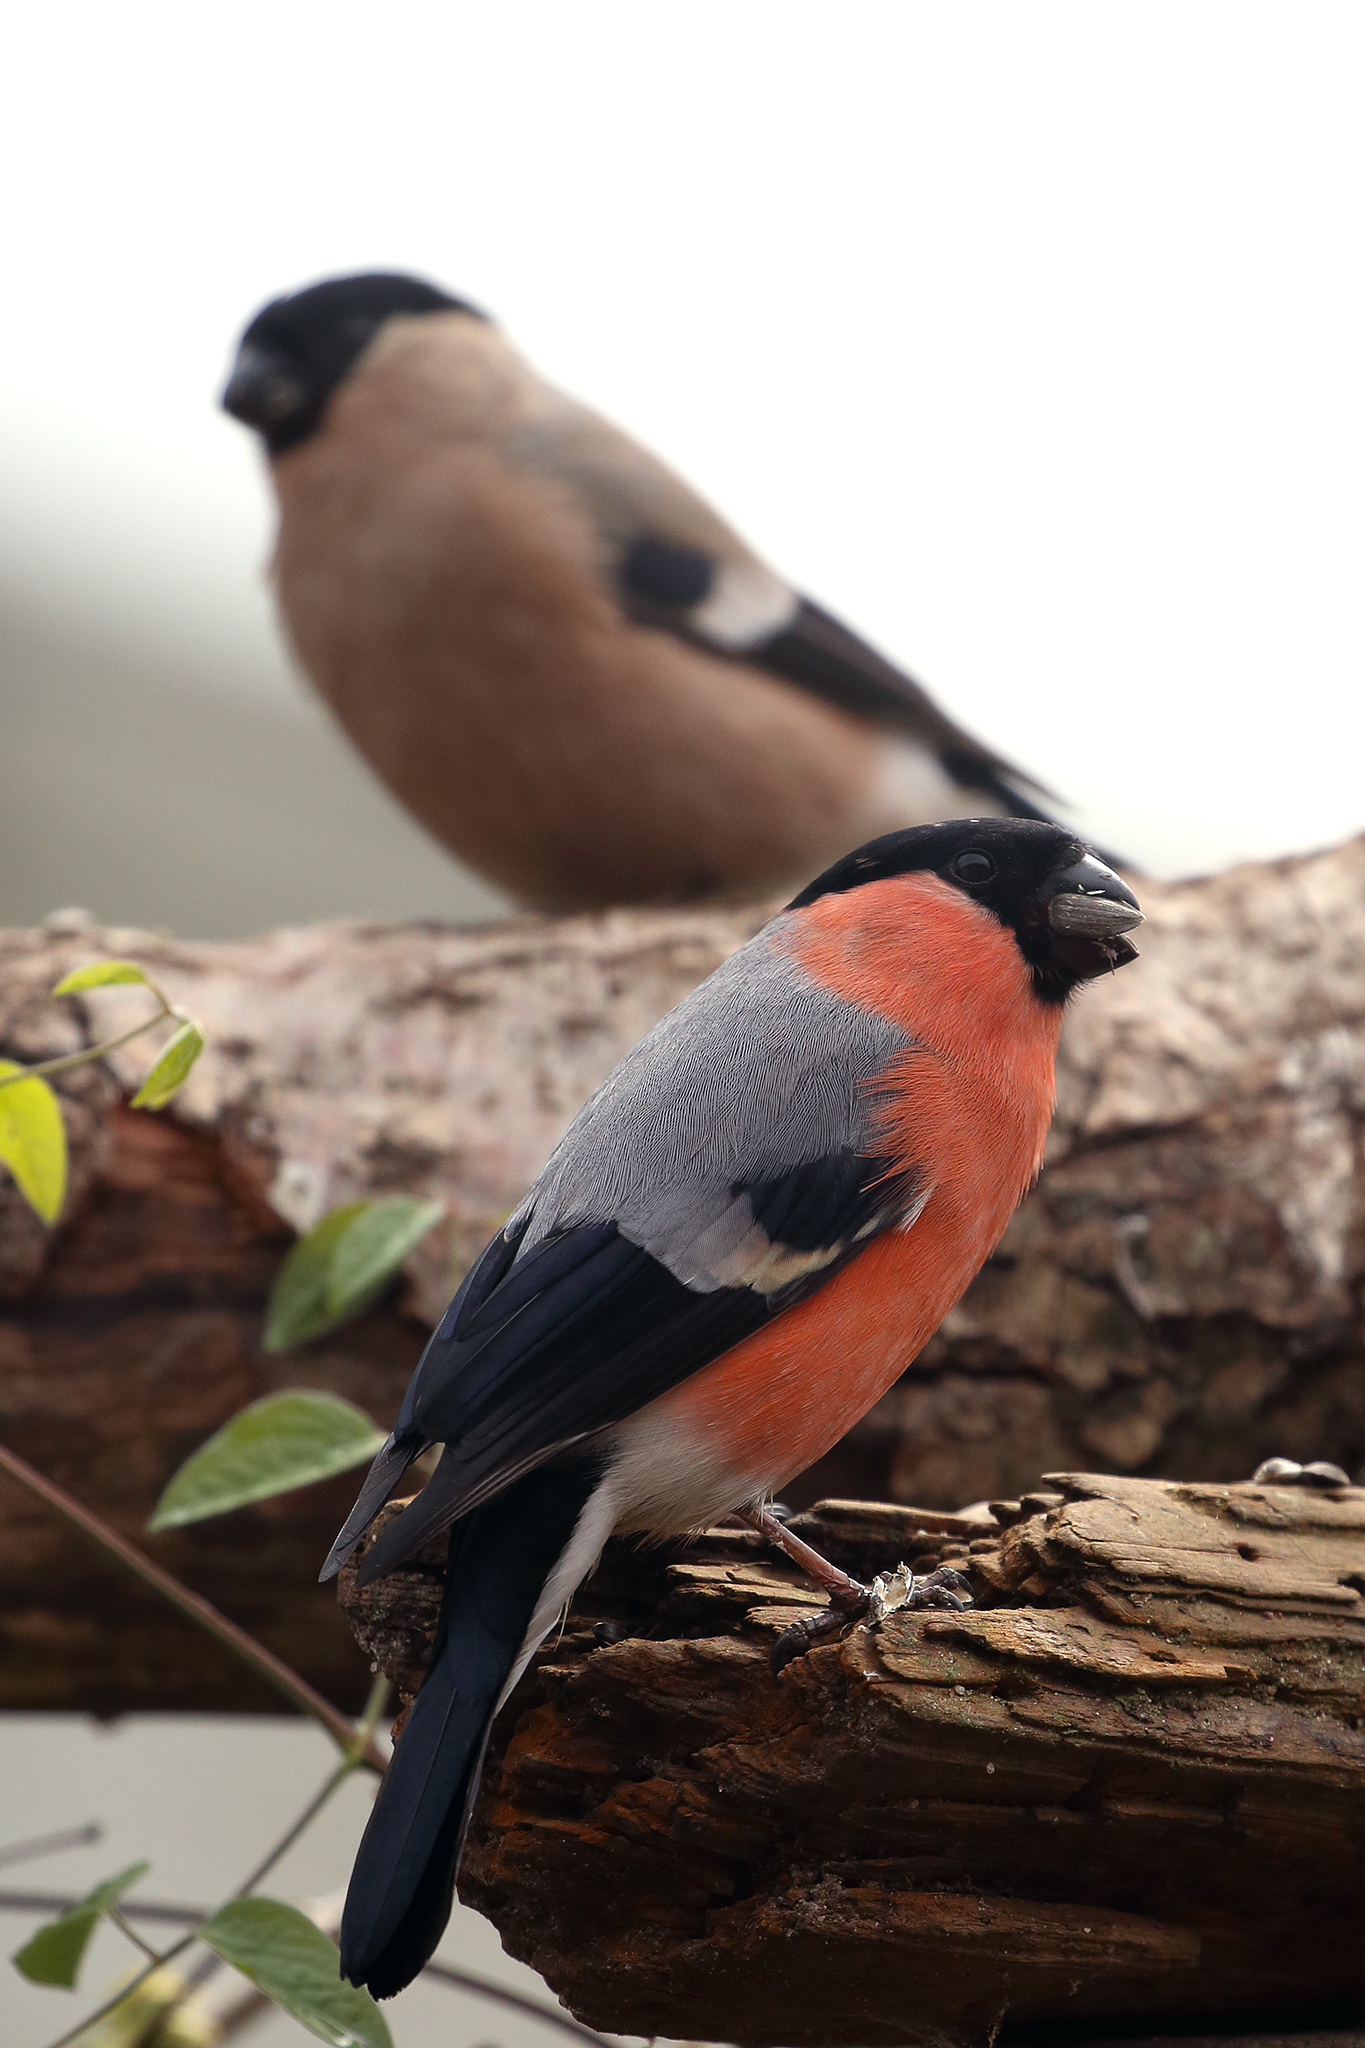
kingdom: Animalia
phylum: Chordata
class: Aves
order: Passeriformes
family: Fringillidae
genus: Pyrrhula
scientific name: Pyrrhula pyrrhula
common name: Eurasian bullfinch
